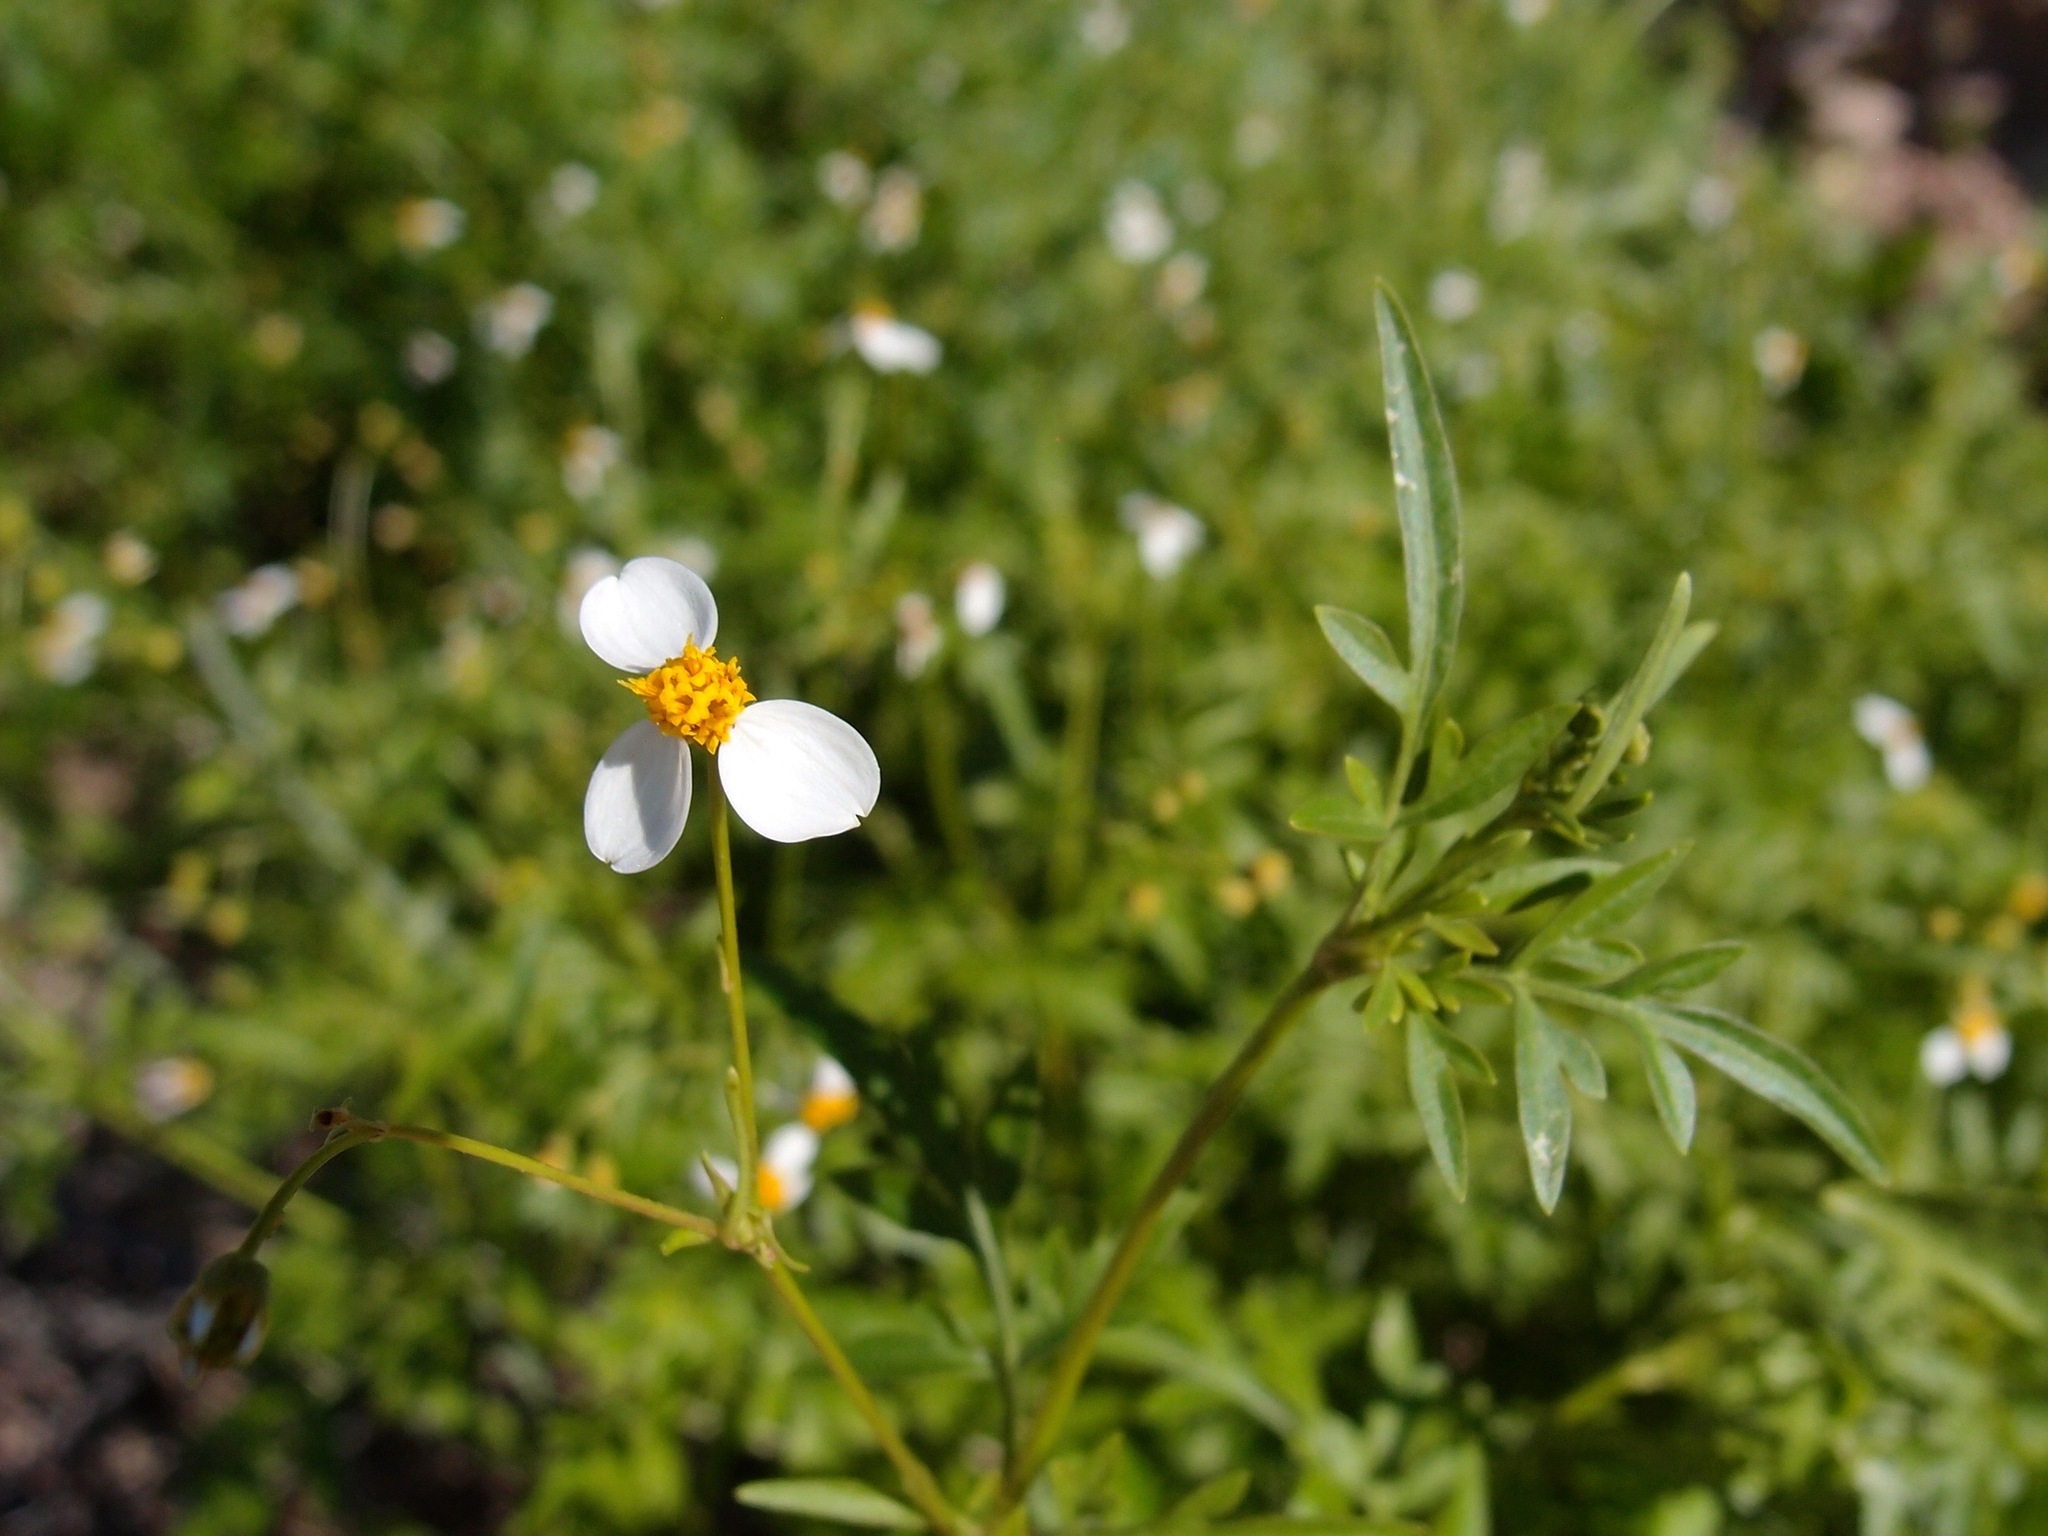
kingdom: Plantae
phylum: Tracheophyta
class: Magnoliopsida
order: Asterales
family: Asteraceae
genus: Coreocarpus
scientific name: Coreocarpus sonoranus
